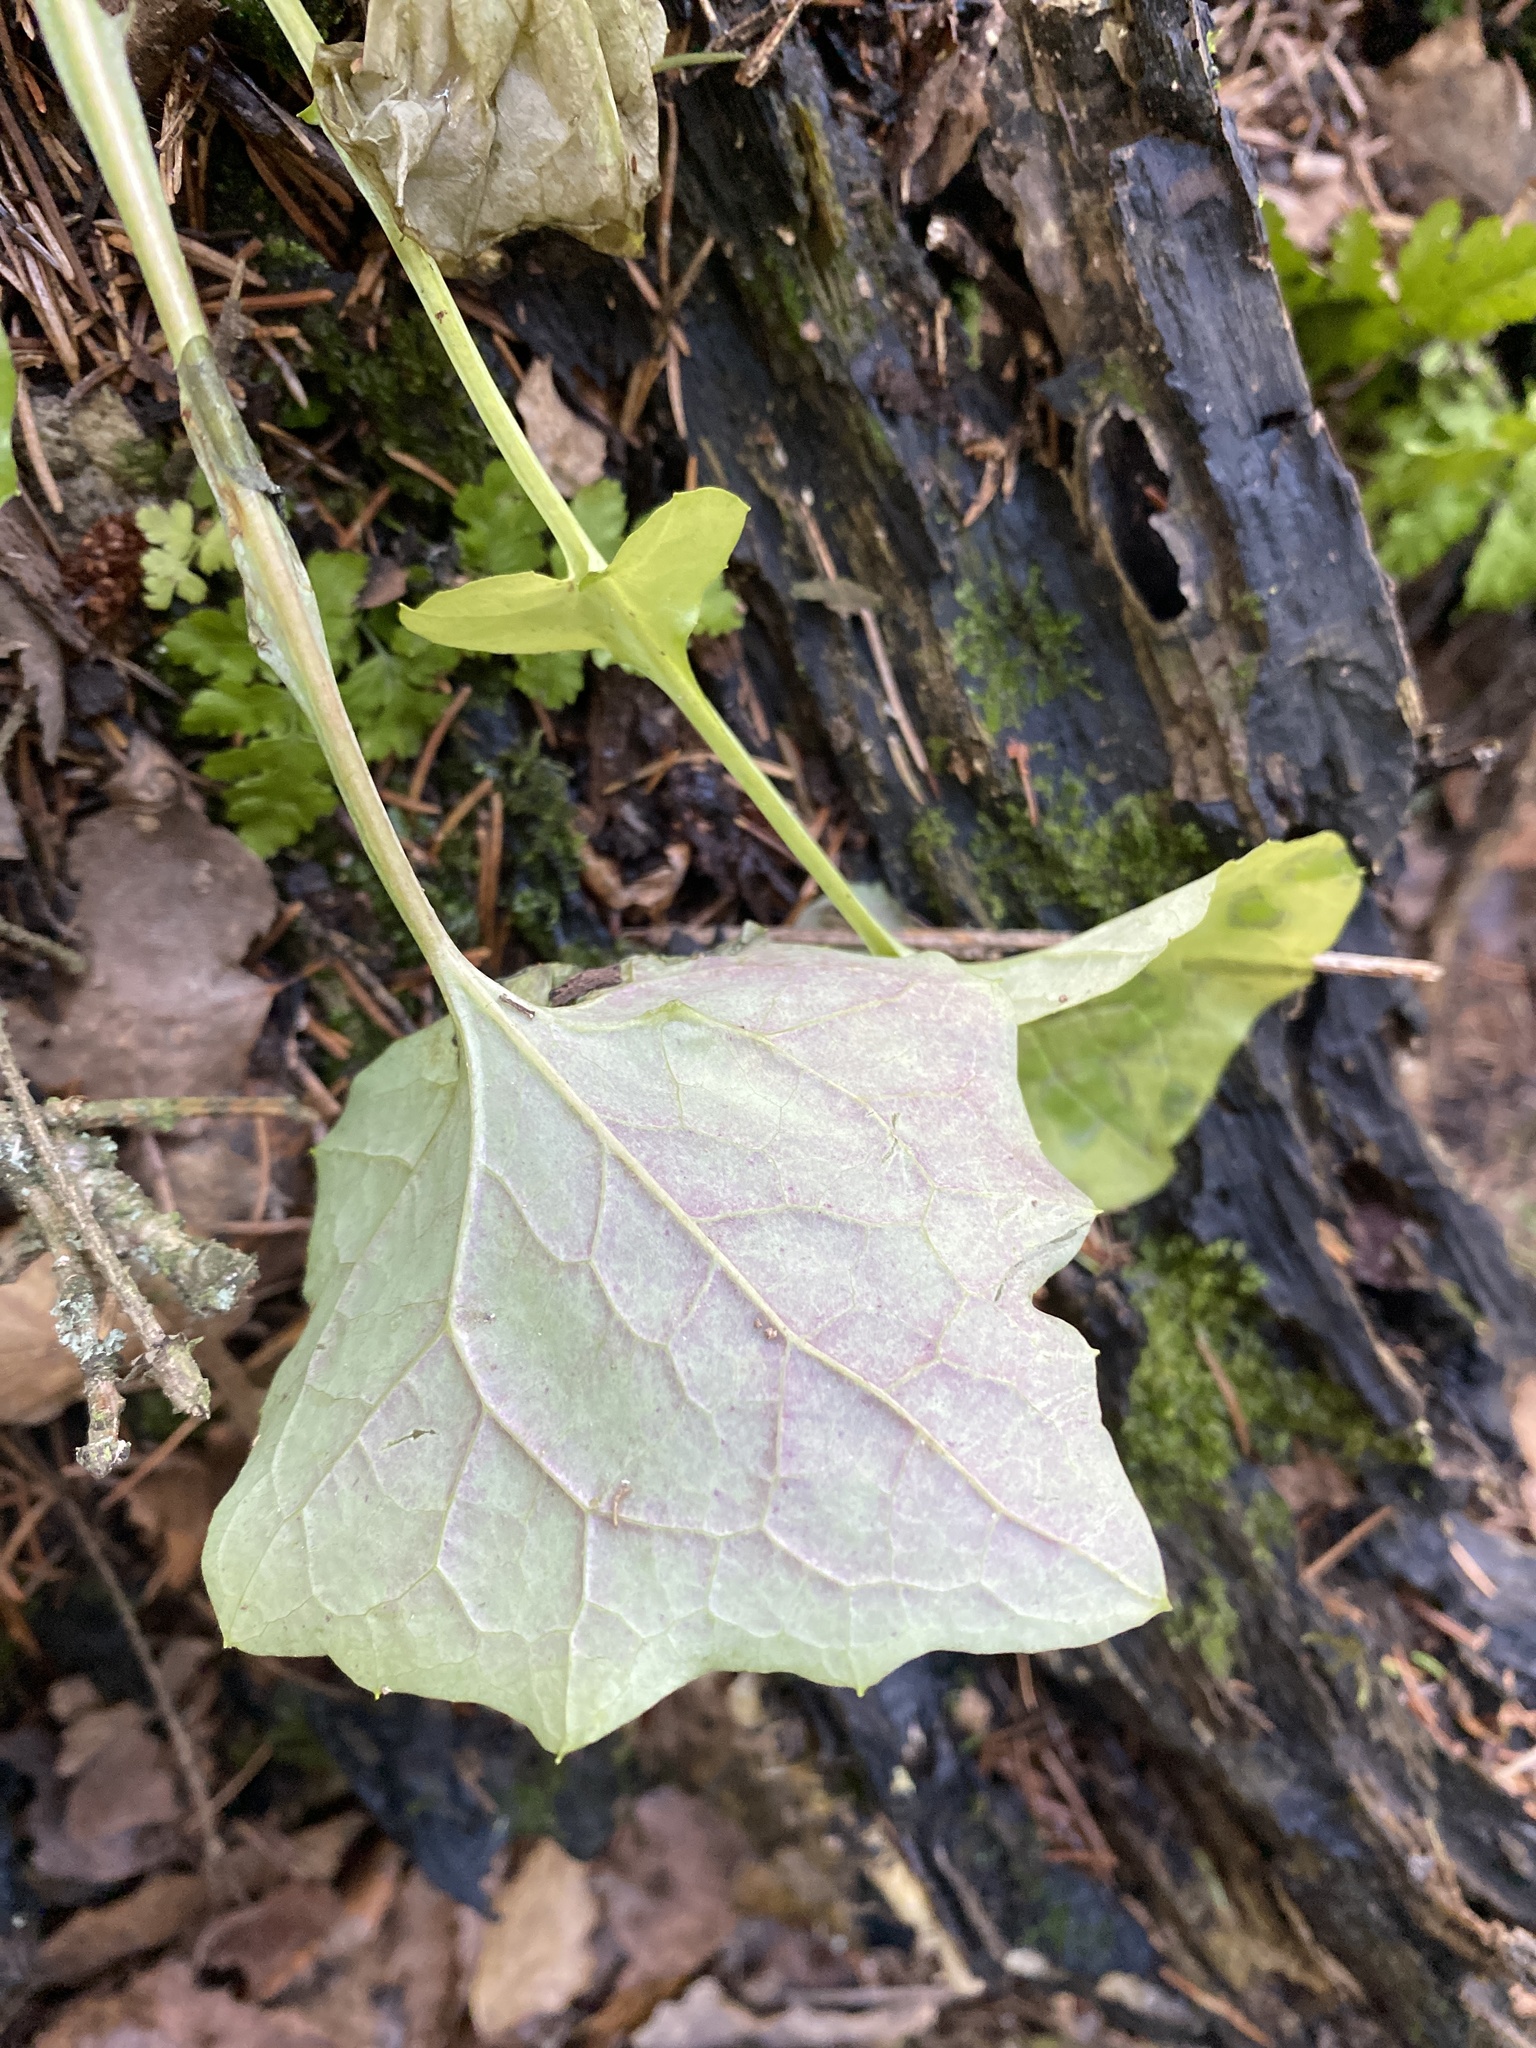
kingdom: Plantae
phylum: Tracheophyta
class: Magnoliopsida
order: Asterales
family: Asteraceae
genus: Mycelis
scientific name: Mycelis muralis
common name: Wall lettuce
